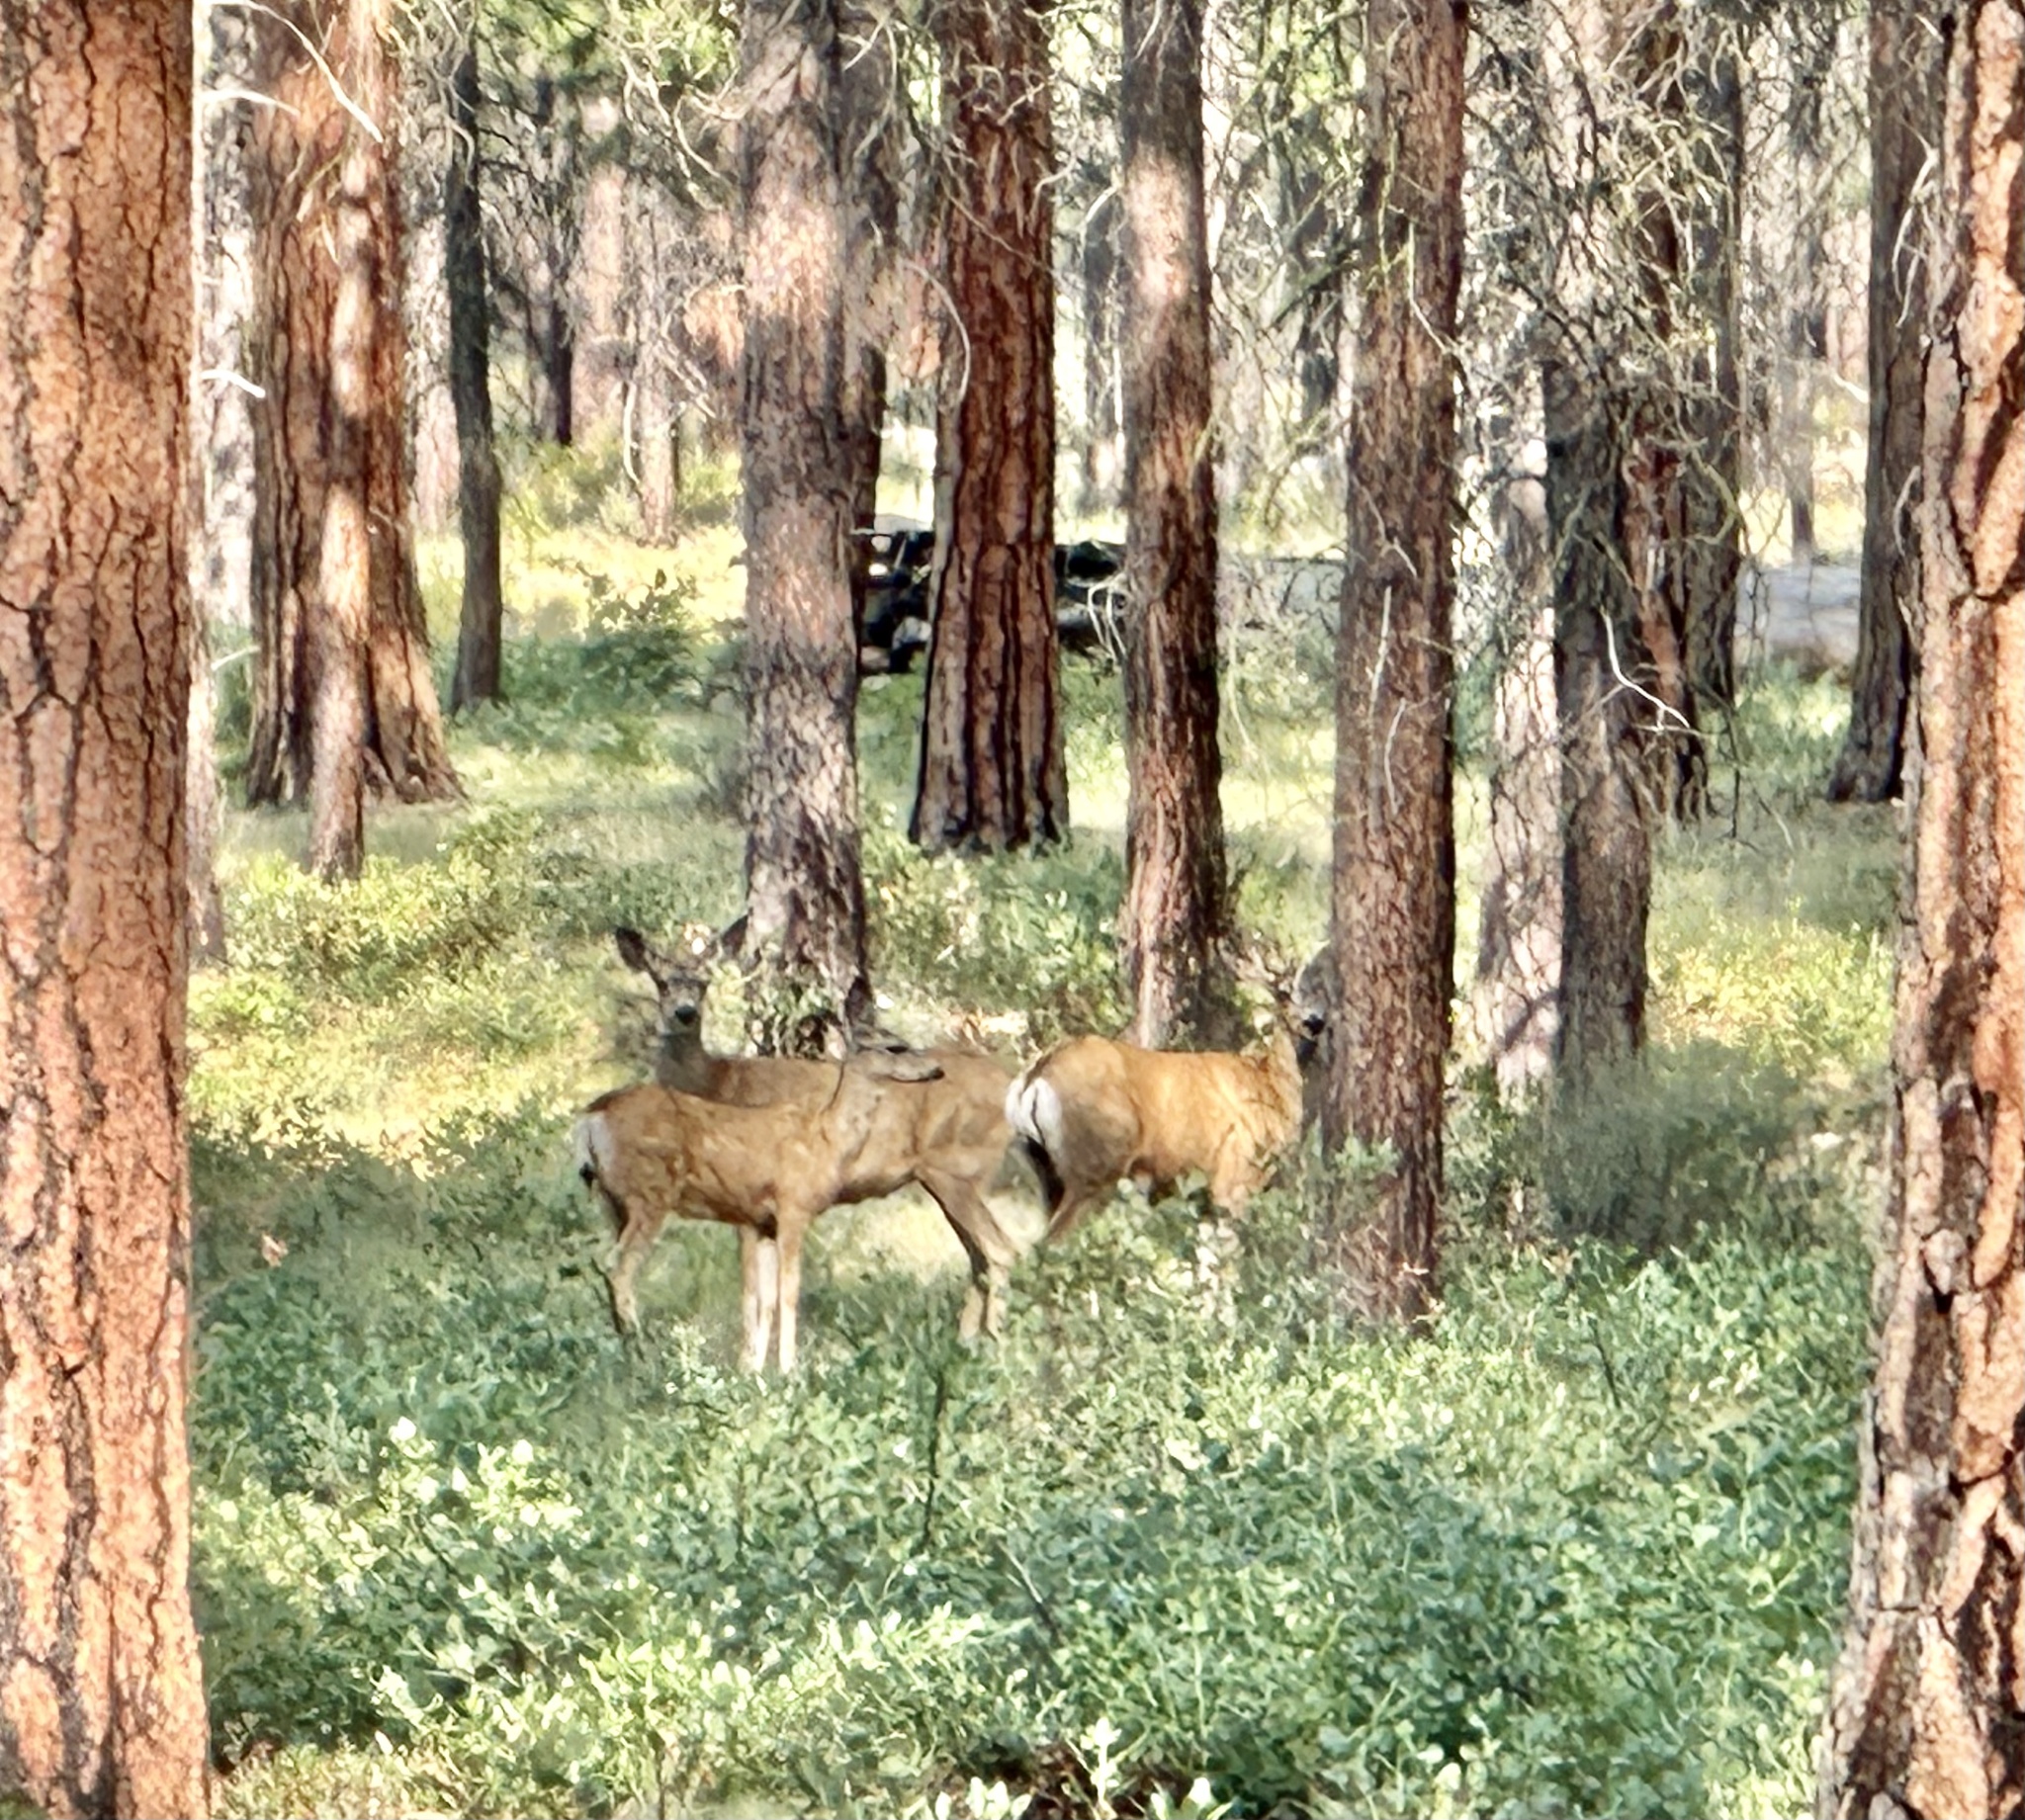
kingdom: Animalia
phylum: Chordata
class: Mammalia
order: Artiodactyla
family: Cervidae
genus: Odocoileus
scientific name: Odocoileus hemionus
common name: Mule deer
